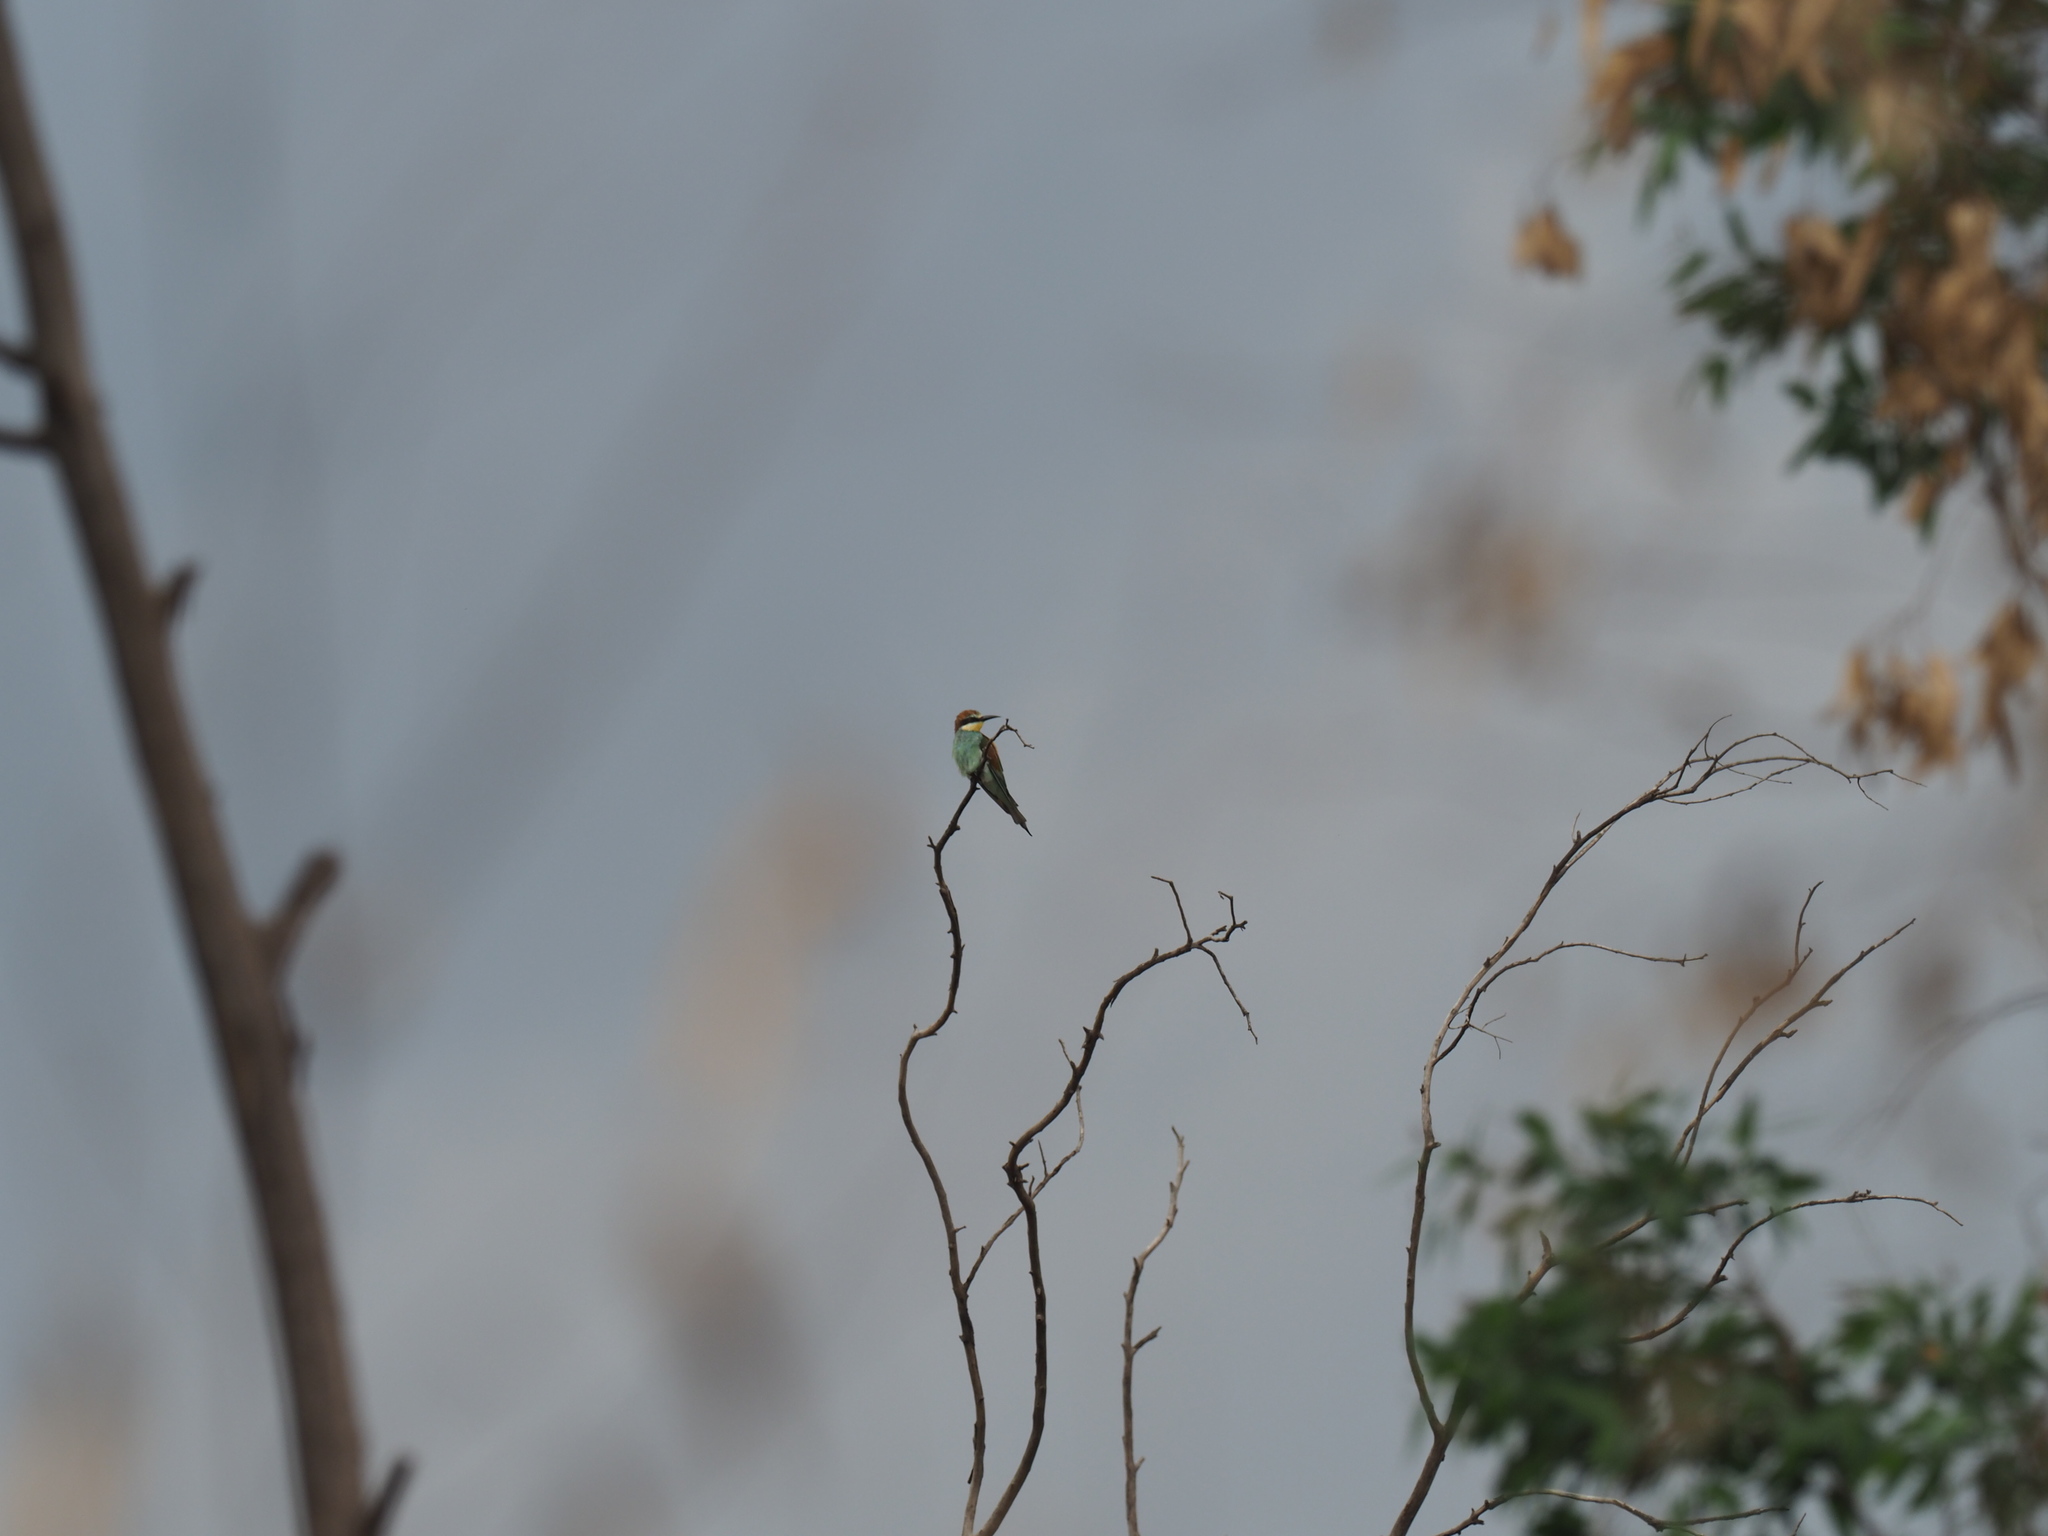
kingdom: Animalia
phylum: Chordata
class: Aves
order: Coraciiformes
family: Meropidae
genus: Merops
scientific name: Merops apiaster
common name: European bee-eater
